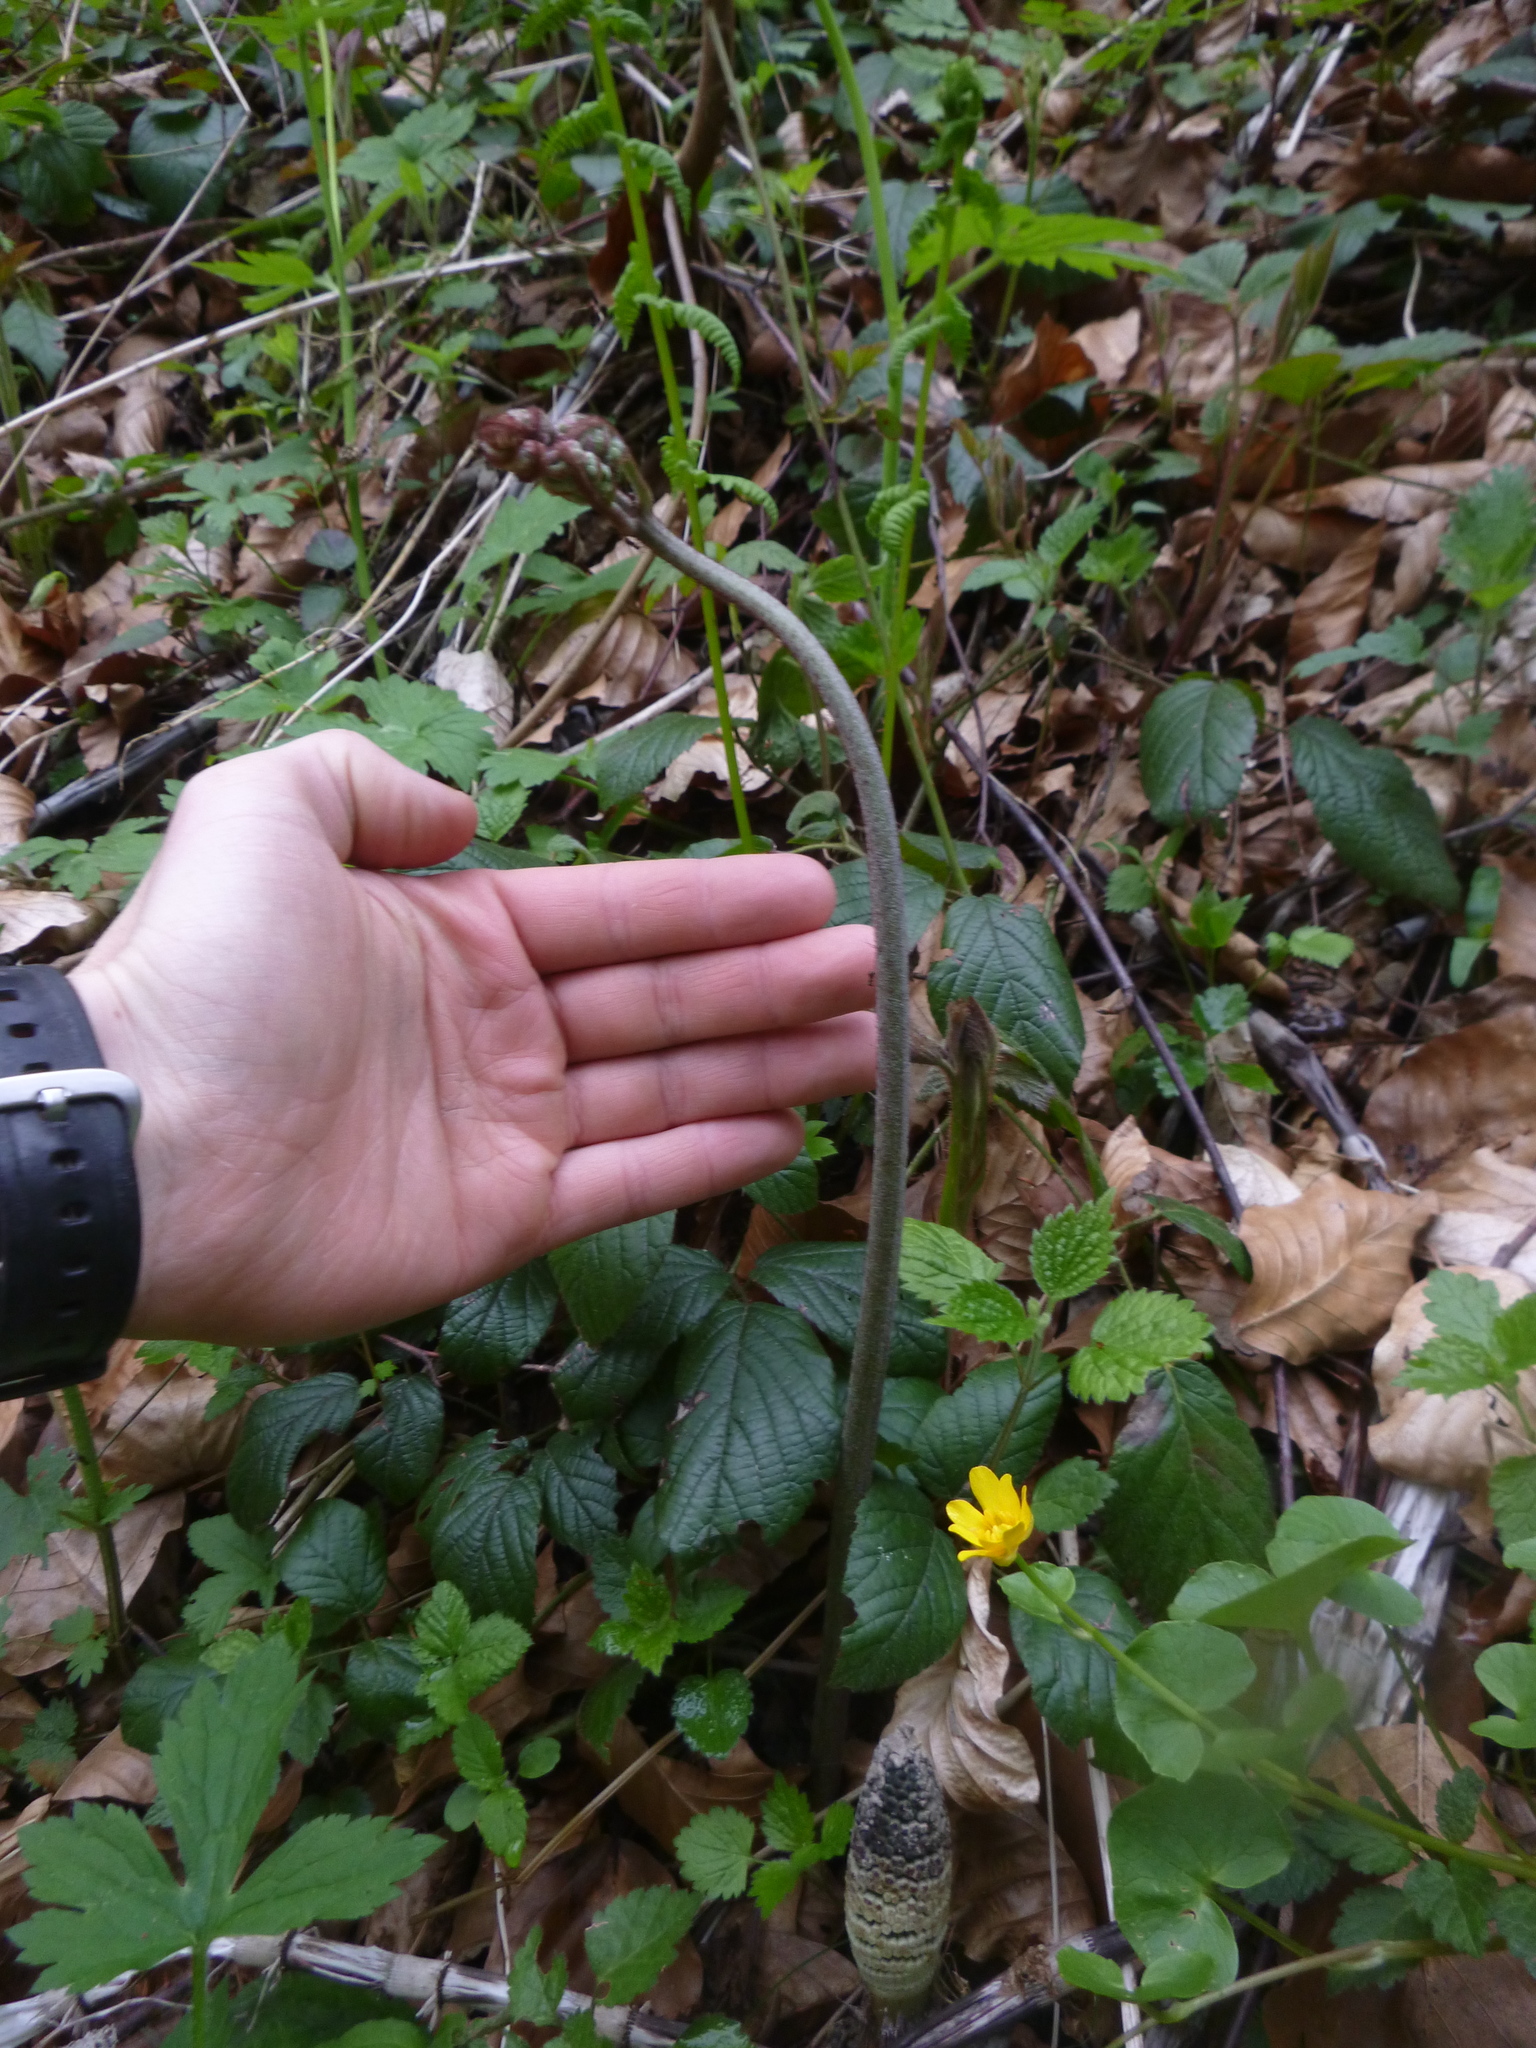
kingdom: Plantae
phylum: Tracheophyta
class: Polypodiopsida
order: Polypodiales
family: Dennstaedtiaceae
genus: Pteridium
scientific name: Pteridium aquilinum
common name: Bracken
